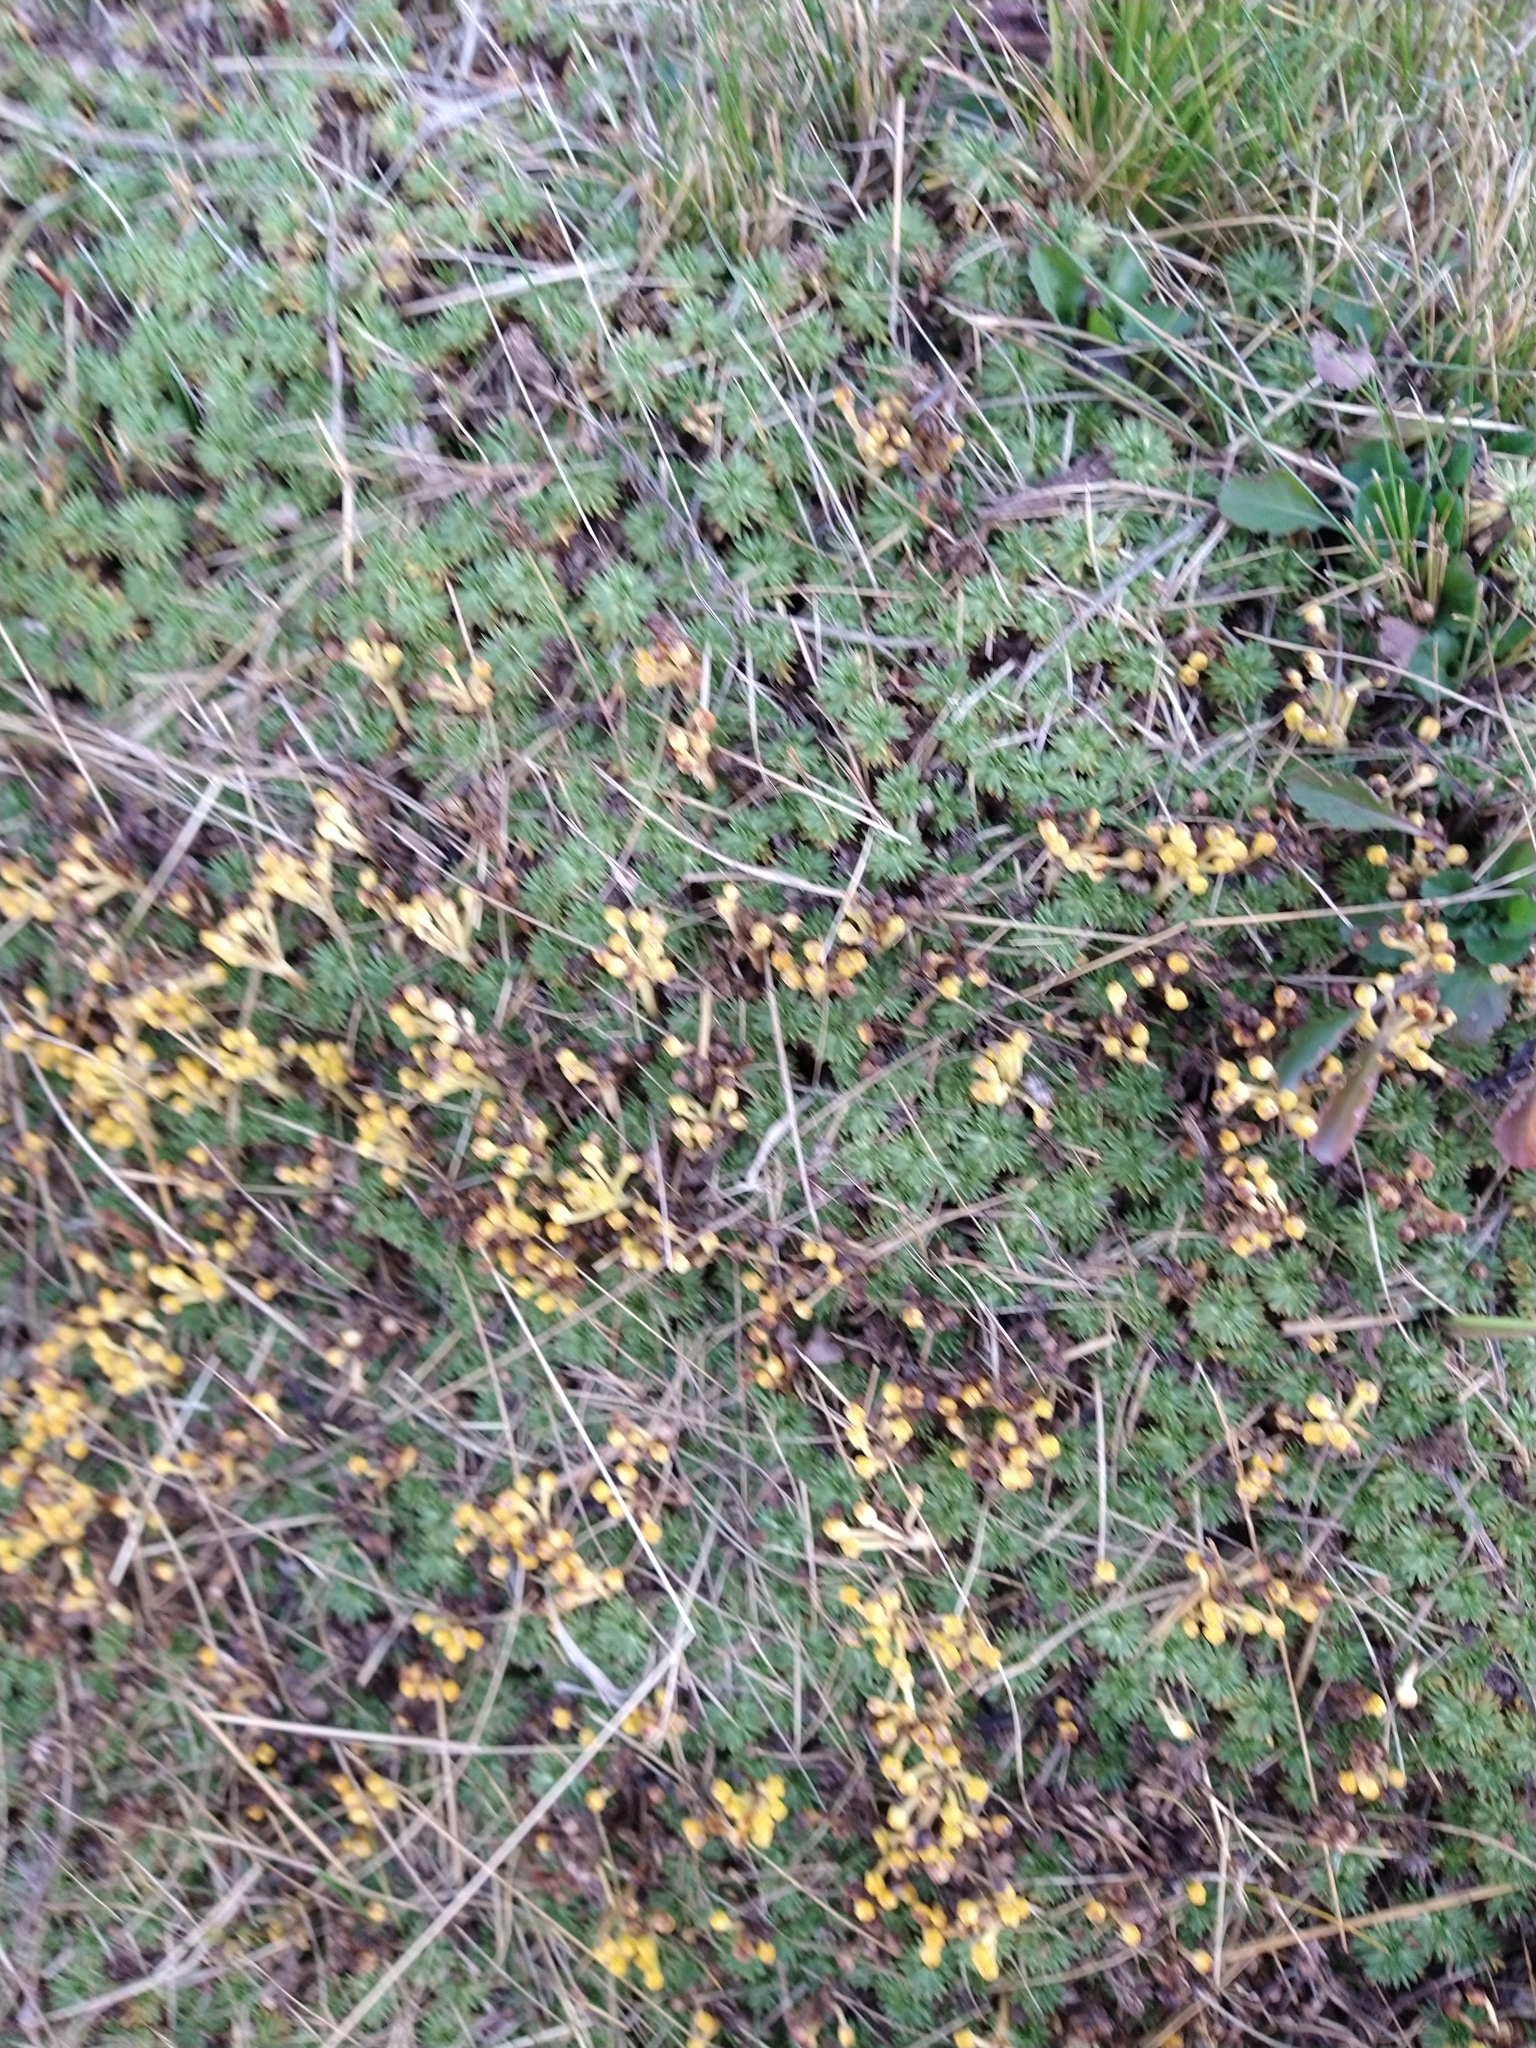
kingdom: Plantae
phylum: Tracheophyta
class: Magnoliopsida
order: Apiales
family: Apiaceae
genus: Azorella
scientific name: Azorella trifurcata
